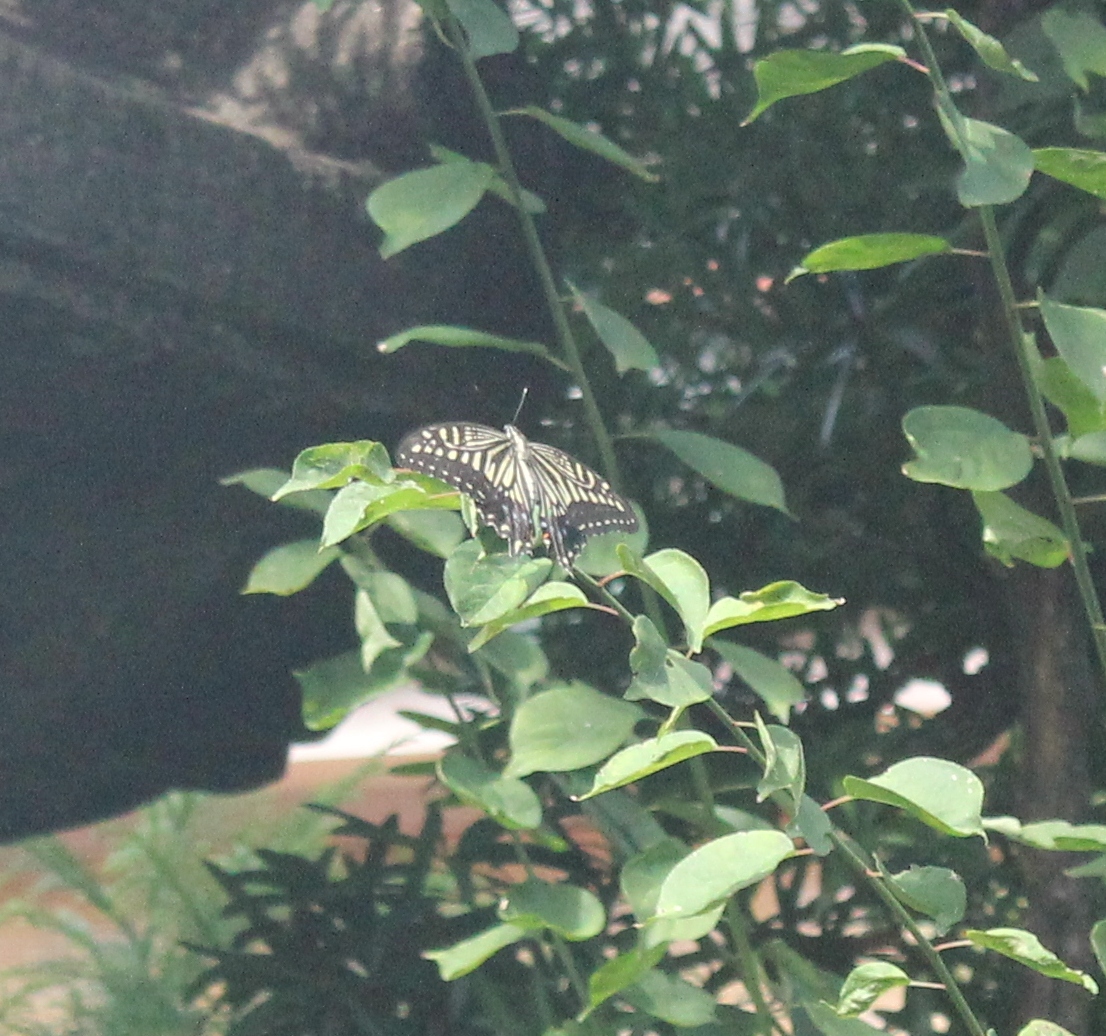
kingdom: Animalia
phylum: Arthropoda
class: Insecta
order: Lepidoptera
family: Papilionidae
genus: Papilio
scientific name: Papilio xuthus
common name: Asian swallowtail
